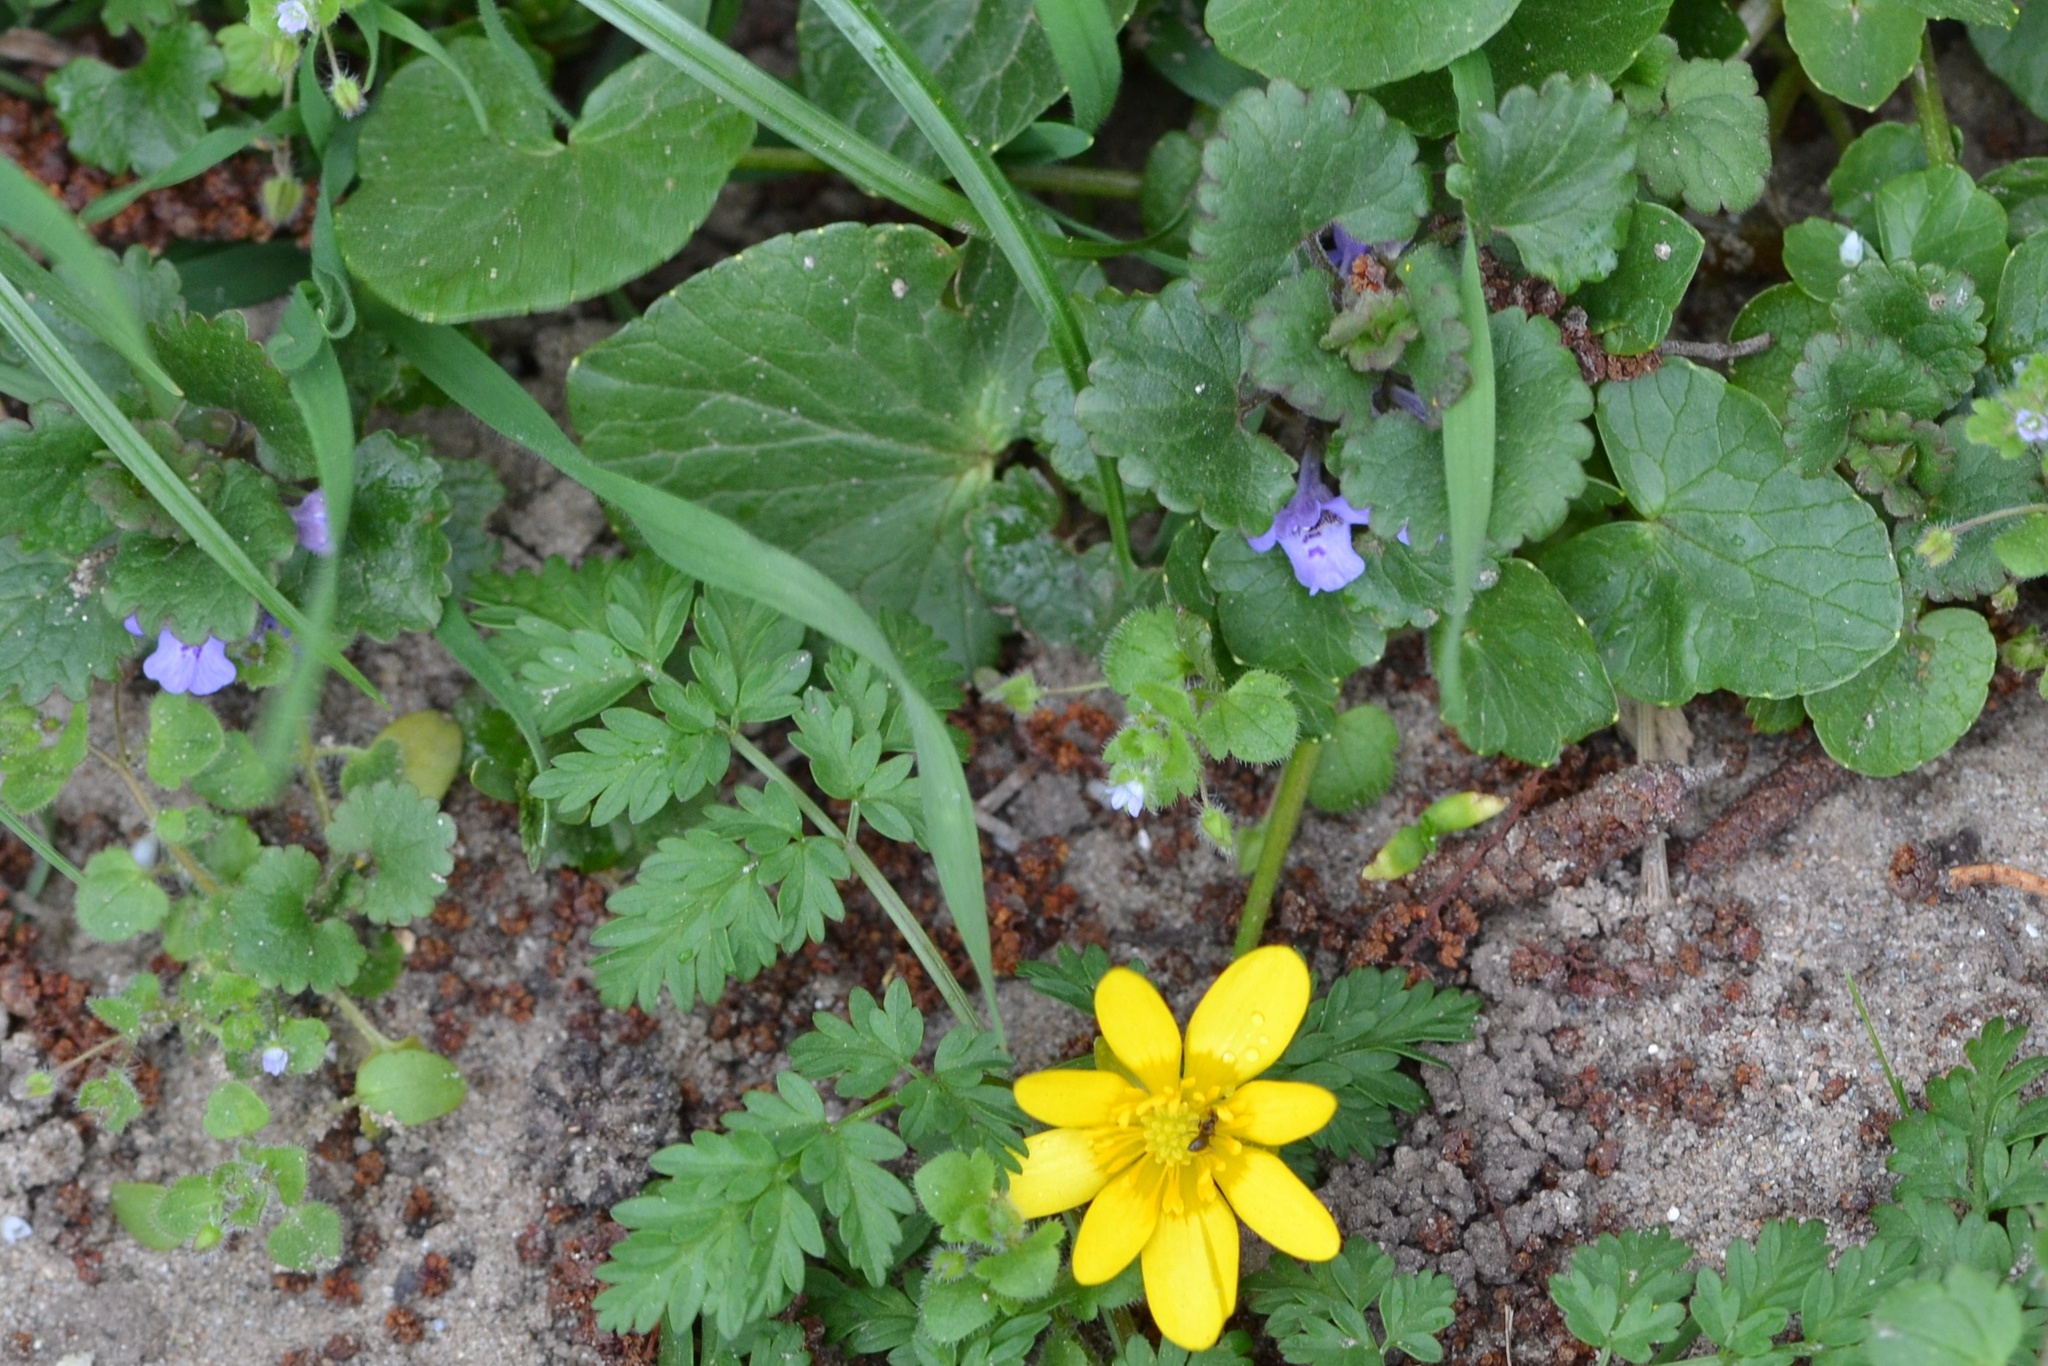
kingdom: Plantae
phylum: Tracheophyta
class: Magnoliopsida
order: Ranunculales
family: Ranunculaceae
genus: Ficaria
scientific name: Ficaria verna
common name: Lesser celandine
